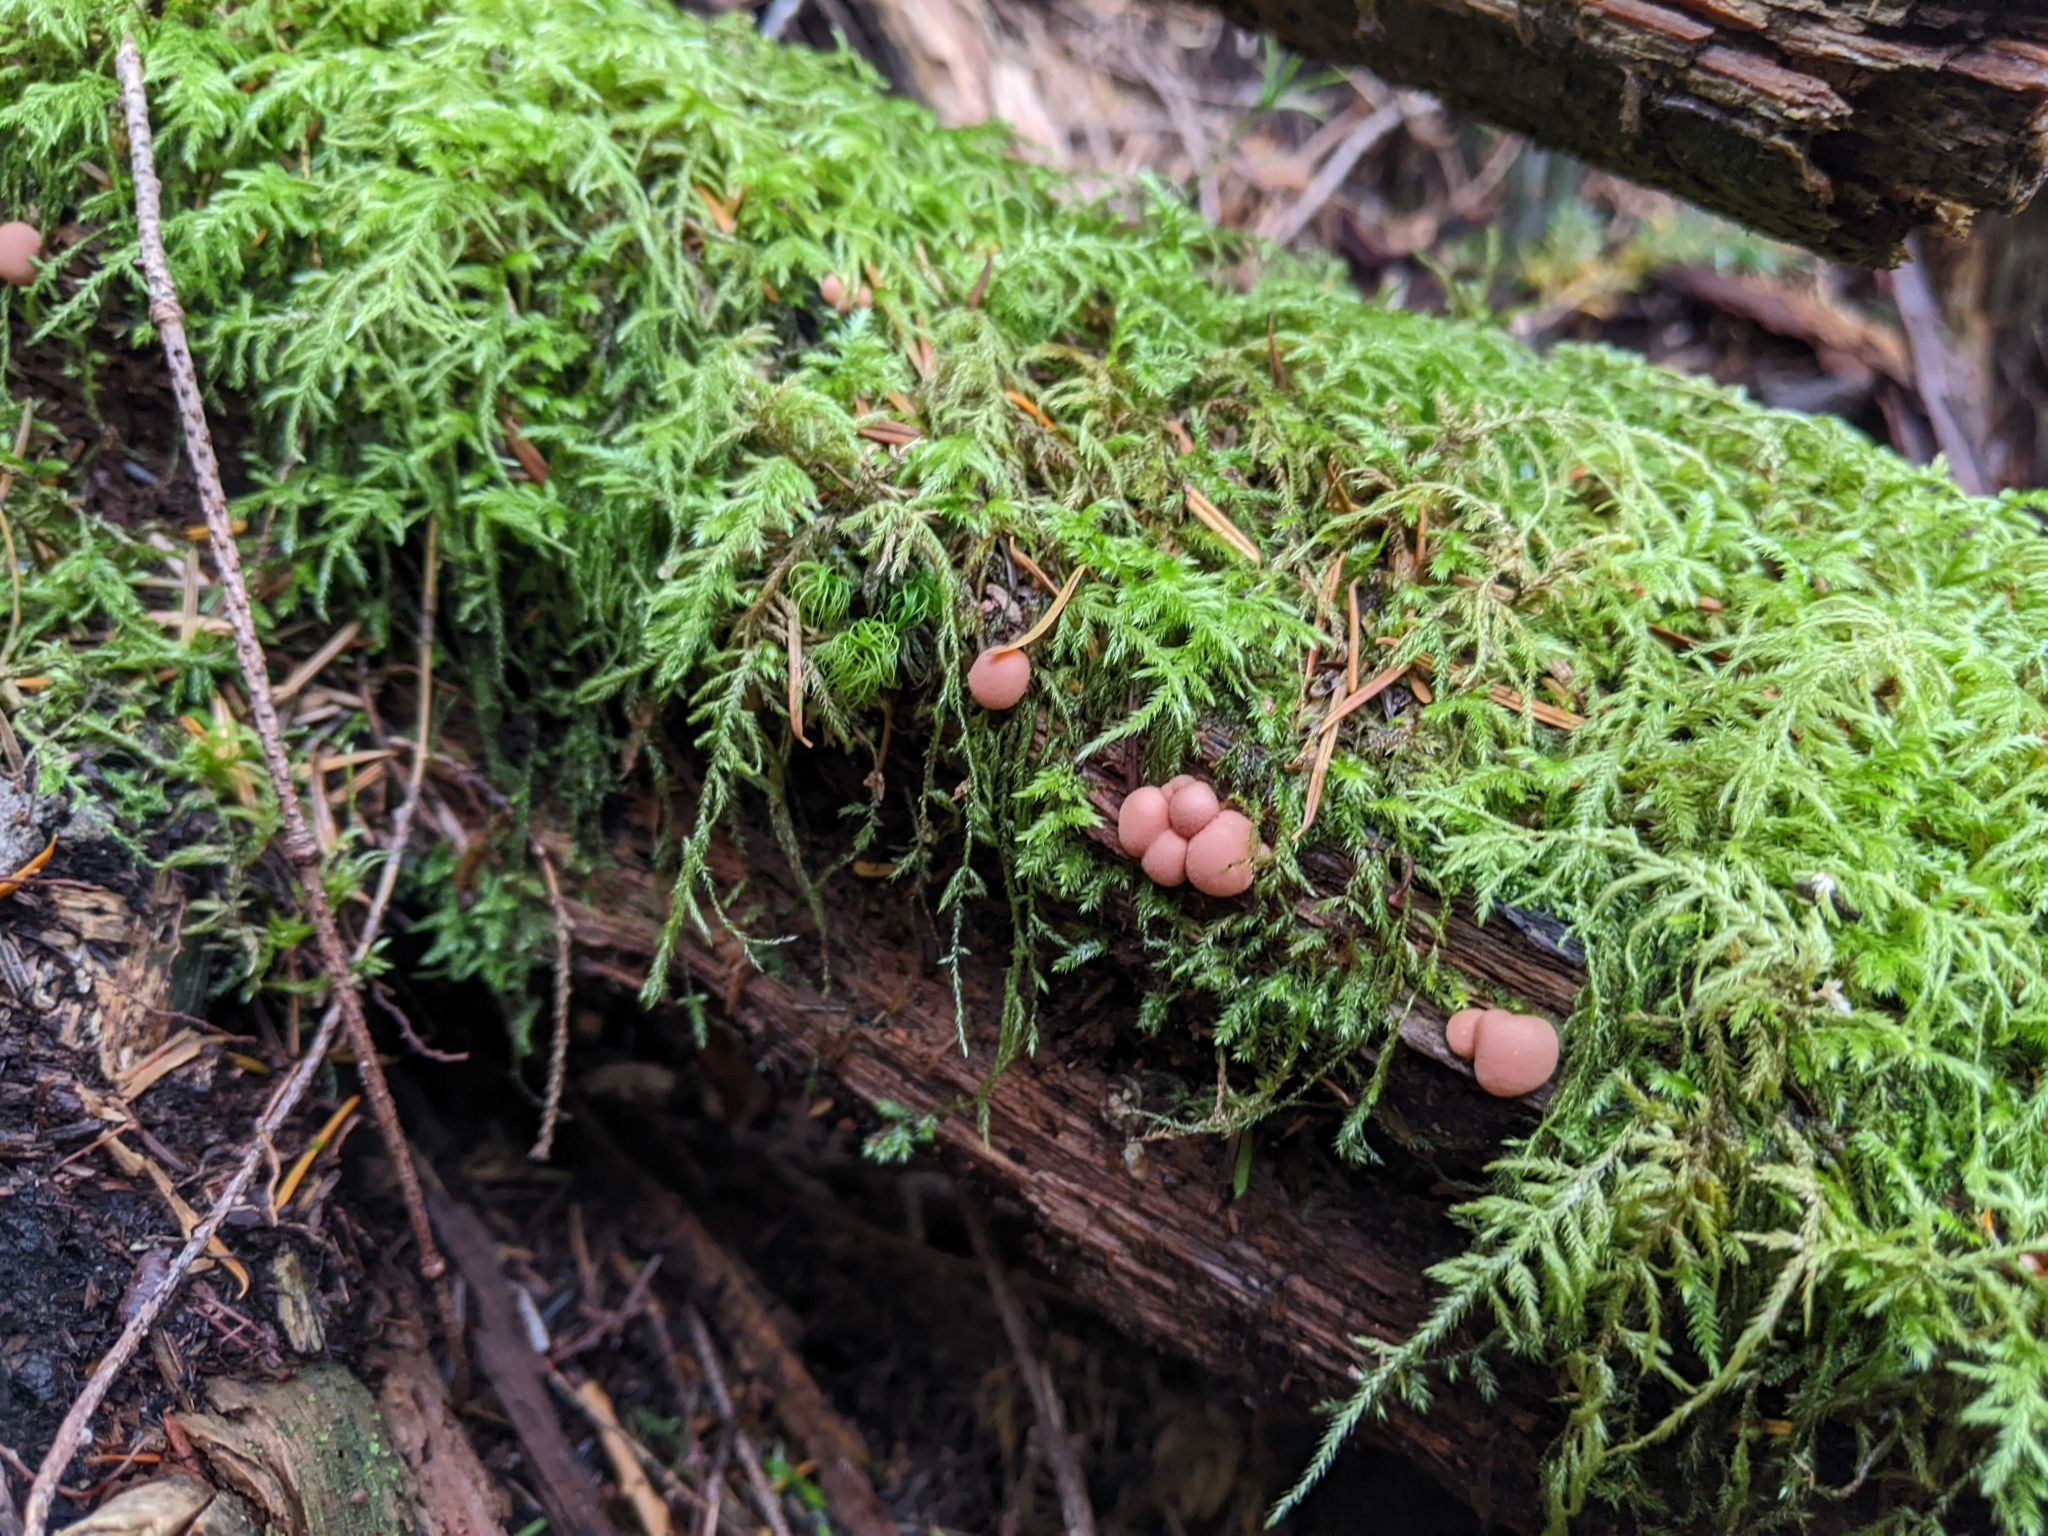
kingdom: Protozoa
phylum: Mycetozoa
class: Myxomycetes
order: Cribrariales
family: Tubiferaceae
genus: Lycogala
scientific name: Lycogala epidendrum
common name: Wolf's milk
